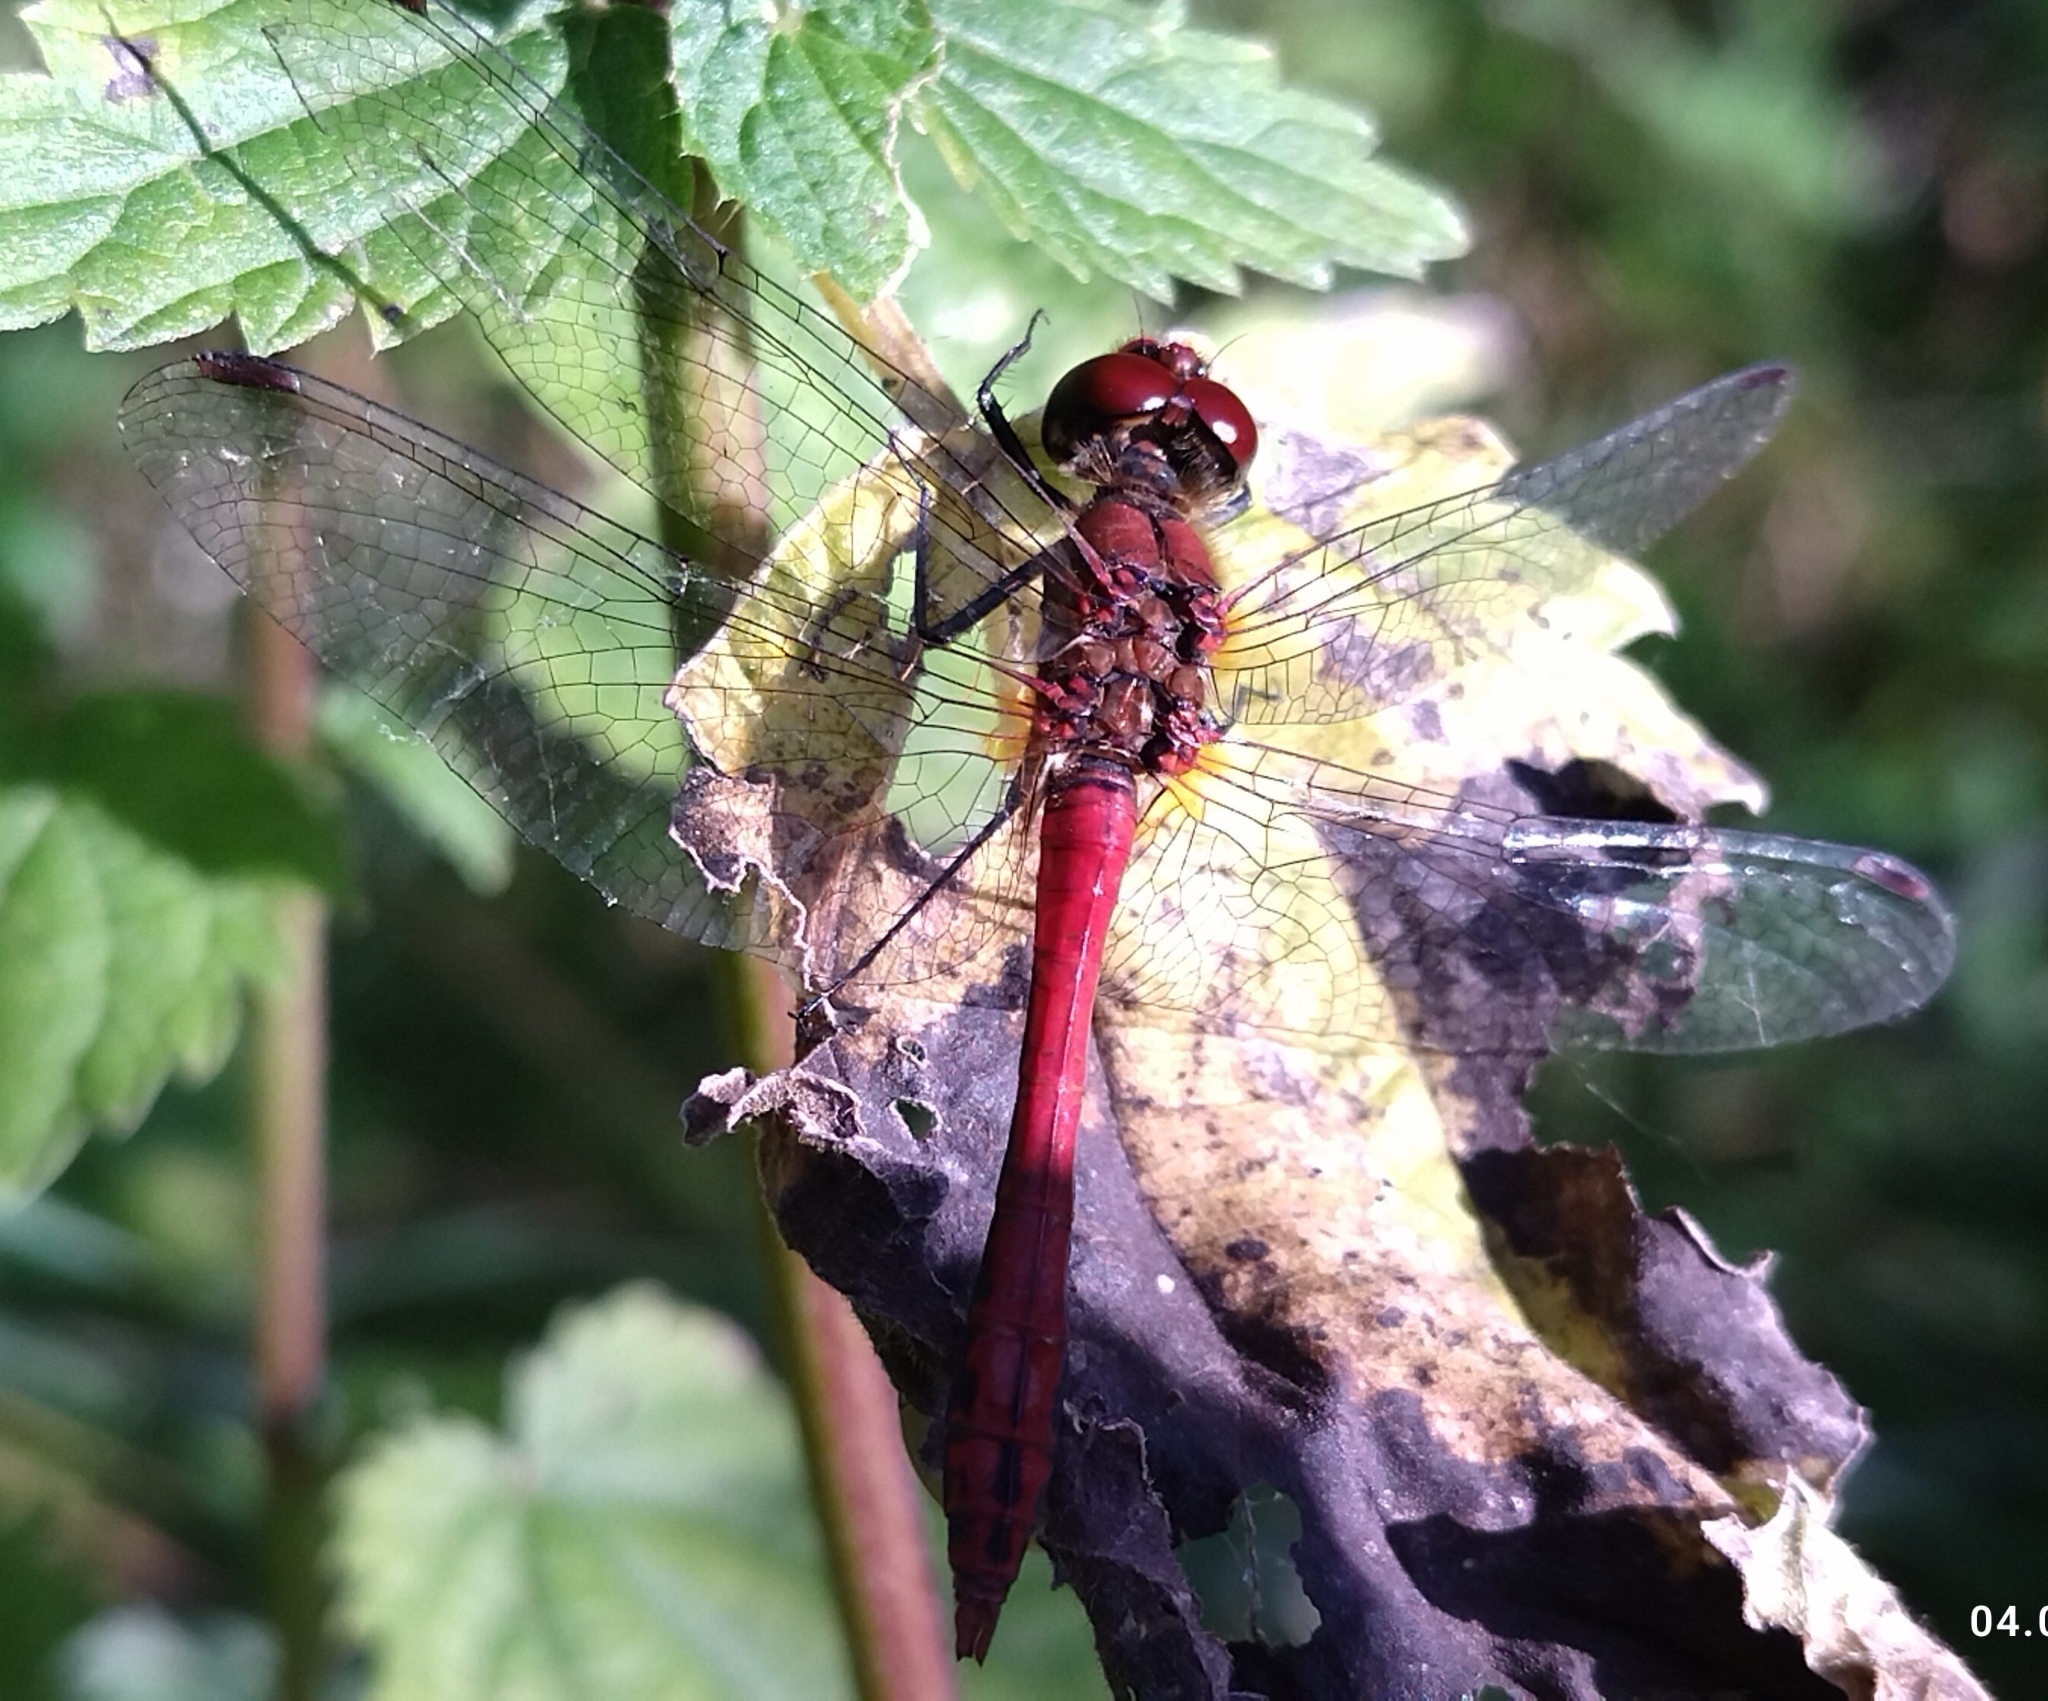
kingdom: Animalia
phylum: Arthropoda
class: Insecta
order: Odonata
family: Libellulidae
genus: Sympetrum
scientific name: Sympetrum sanguineum
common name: Ruddy darter
